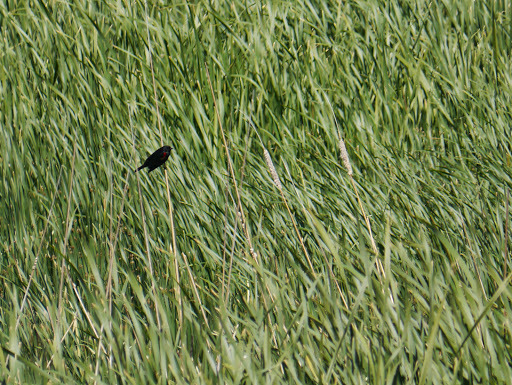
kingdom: Animalia
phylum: Chordata
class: Aves
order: Passeriformes
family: Icteridae
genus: Agelaius
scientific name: Agelaius phoeniceus
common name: Red-winged blackbird
